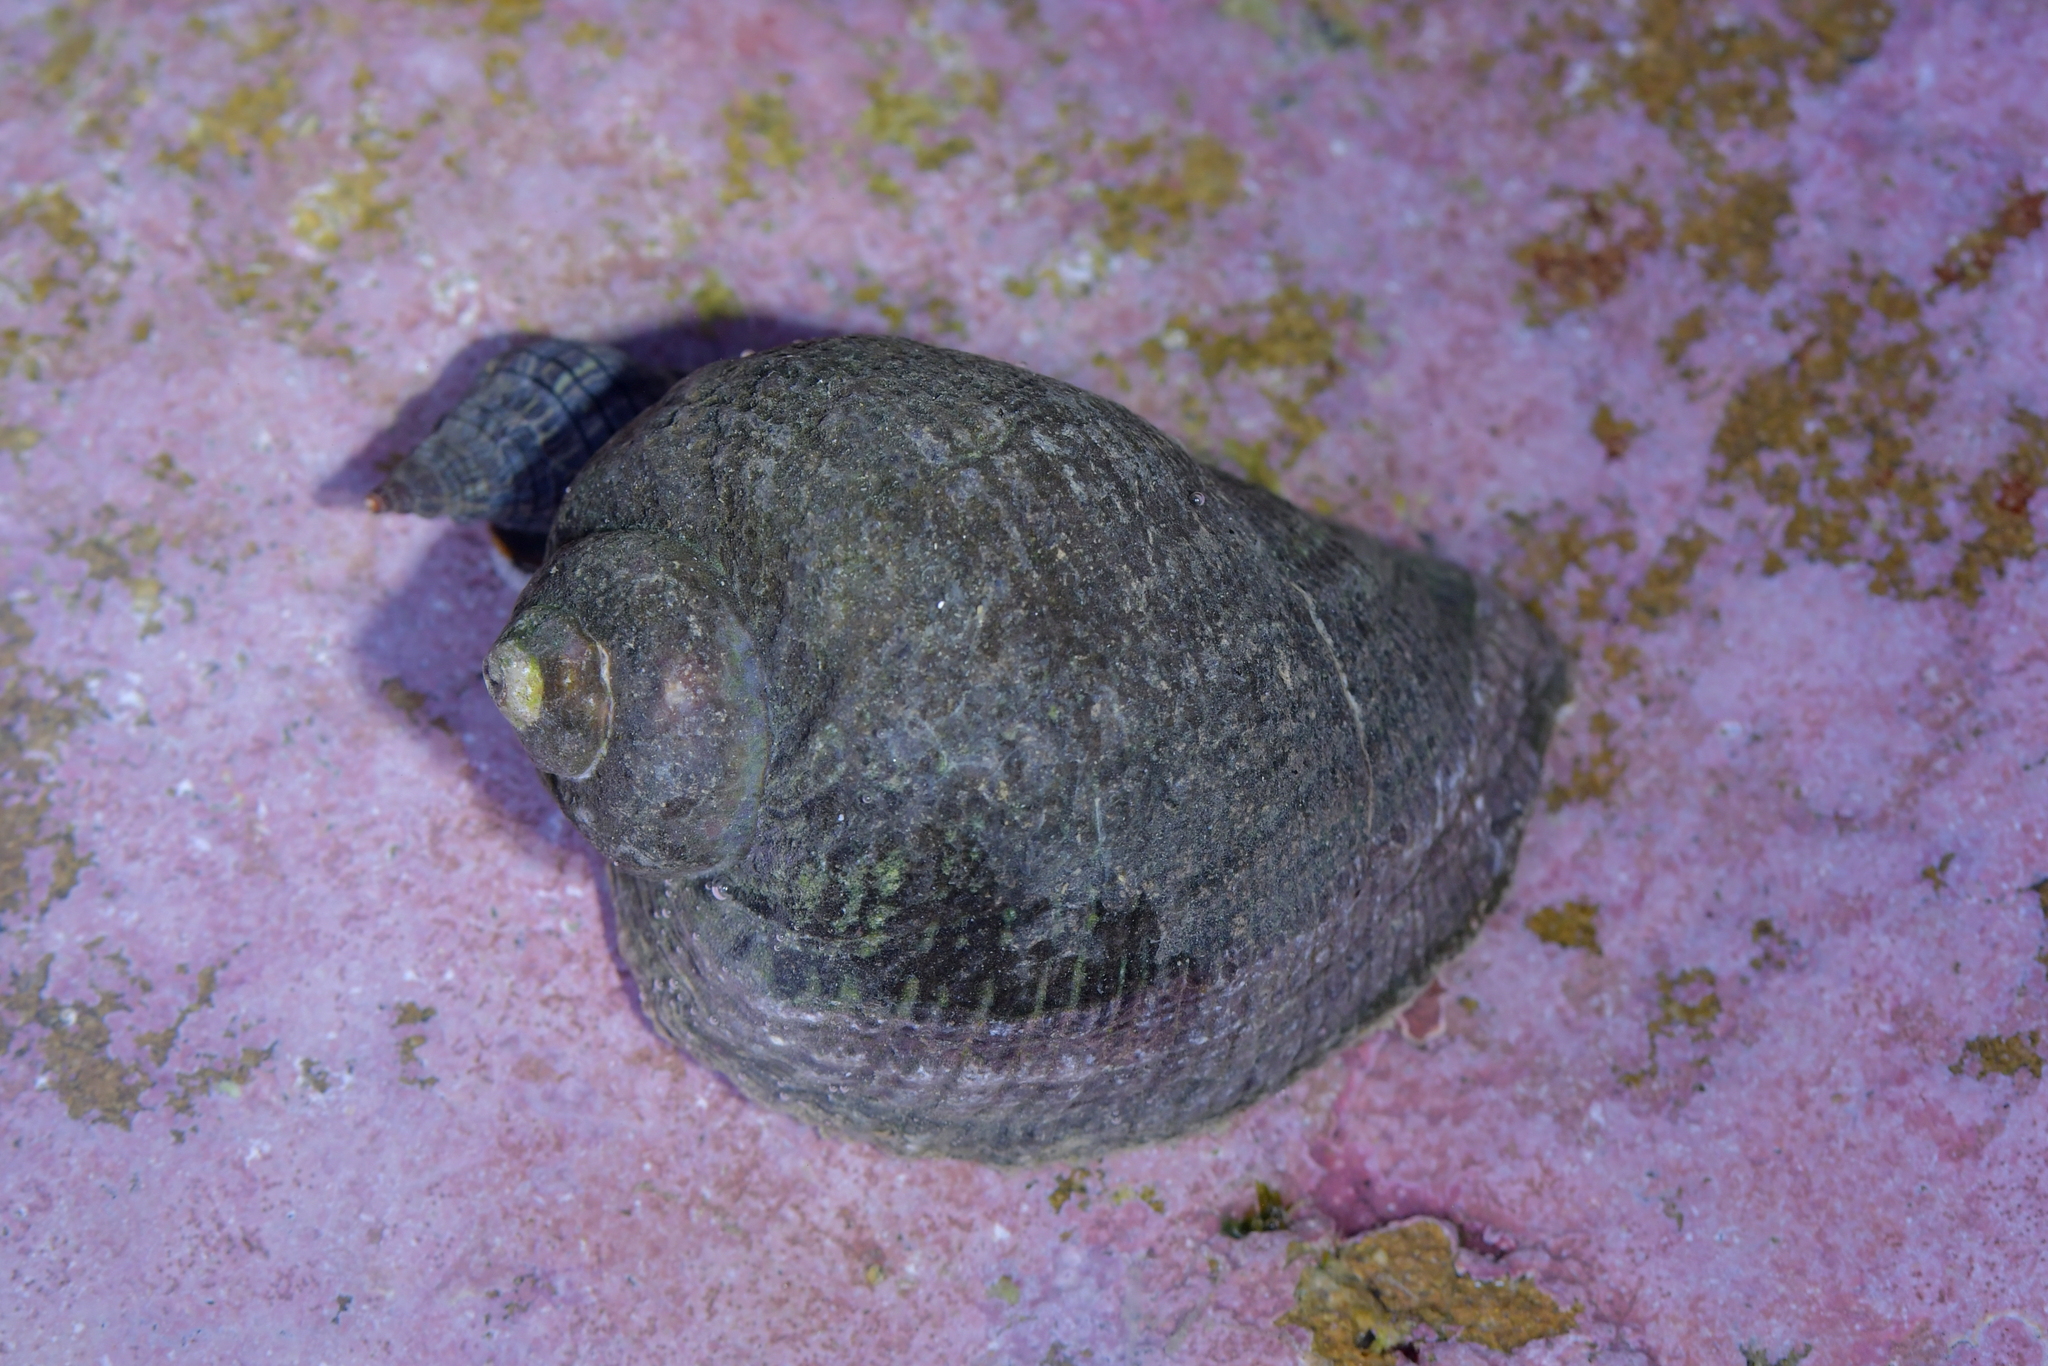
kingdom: Animalia
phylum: Mollusca
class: Gastropoda
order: Neogastropoda
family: Muricidae
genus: Haustrum
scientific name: Haustrum haustorium
